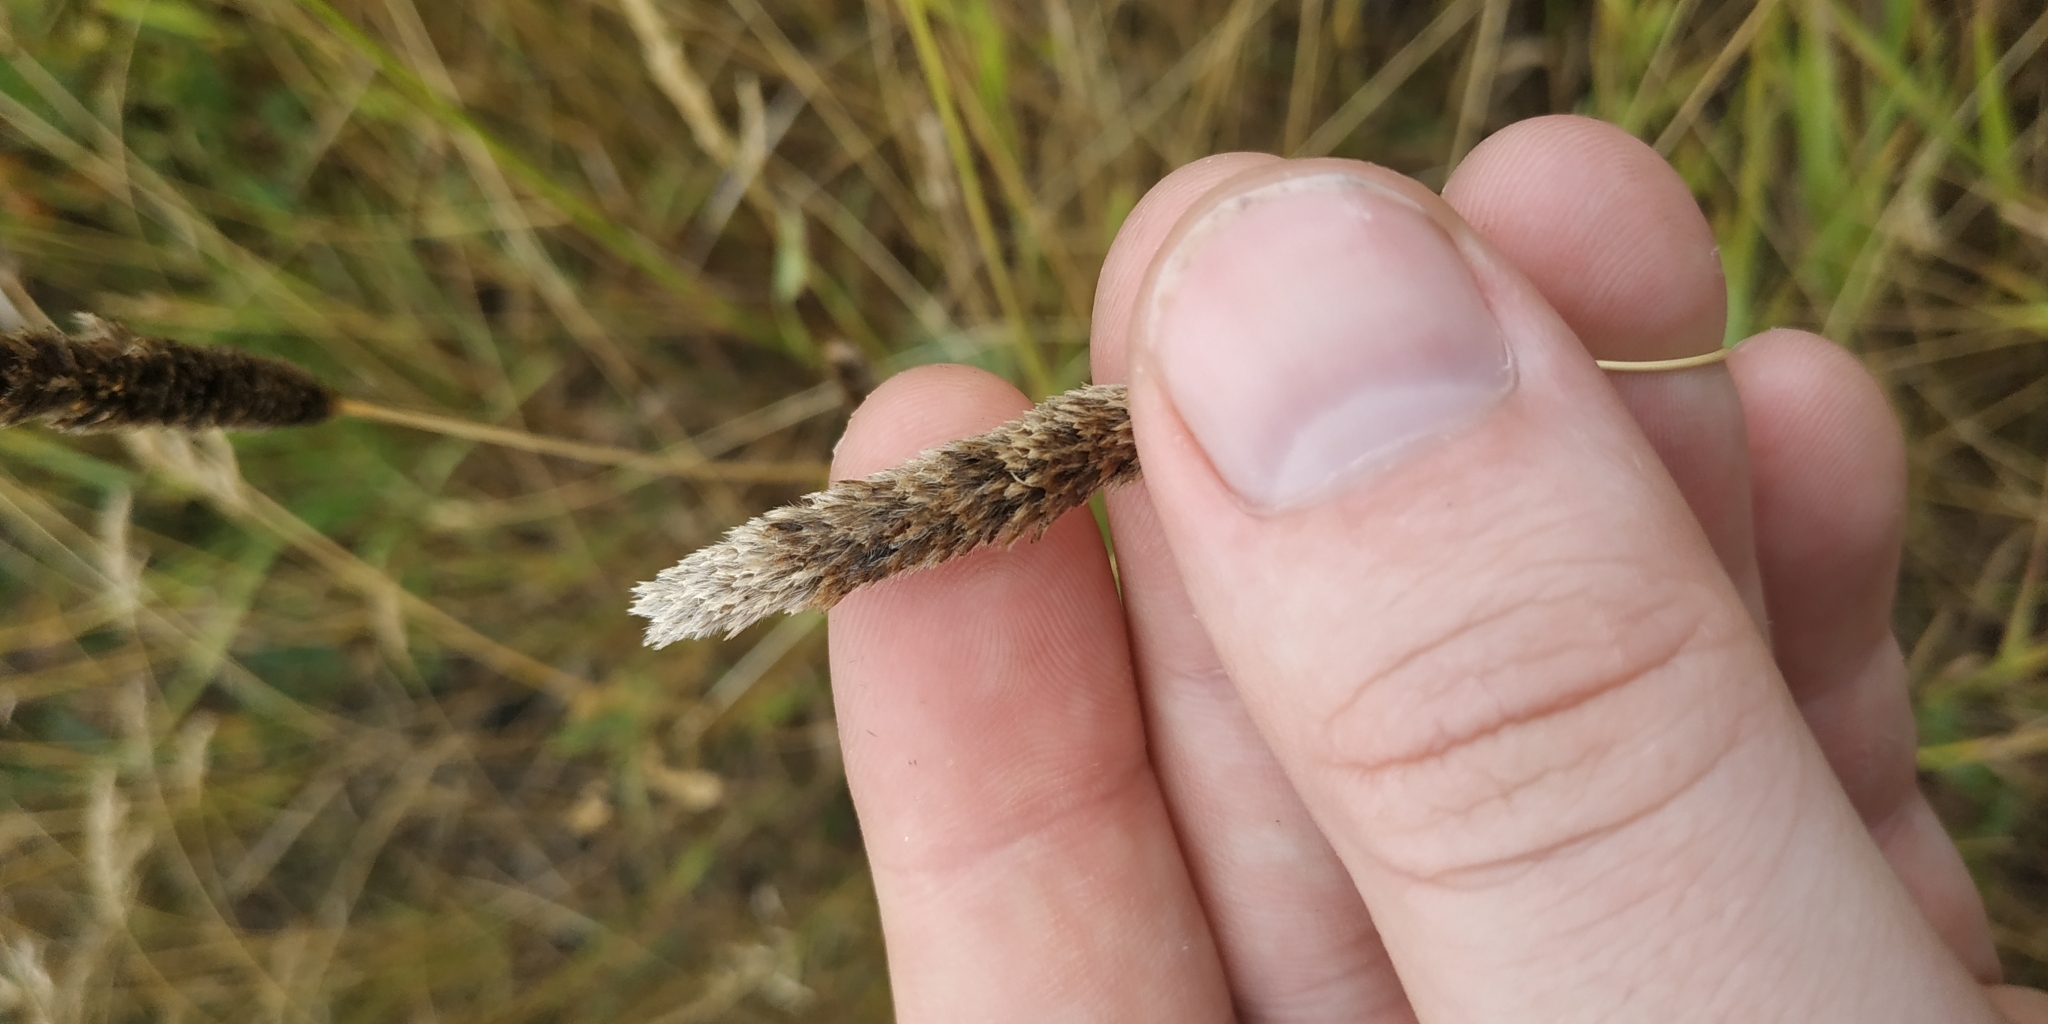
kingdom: Plantae
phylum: Tracheophyta
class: Liliopsida
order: Poales
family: Poaceae
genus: Alopecurus
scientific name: Alopecurus pratensis
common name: Meadow foxtail
